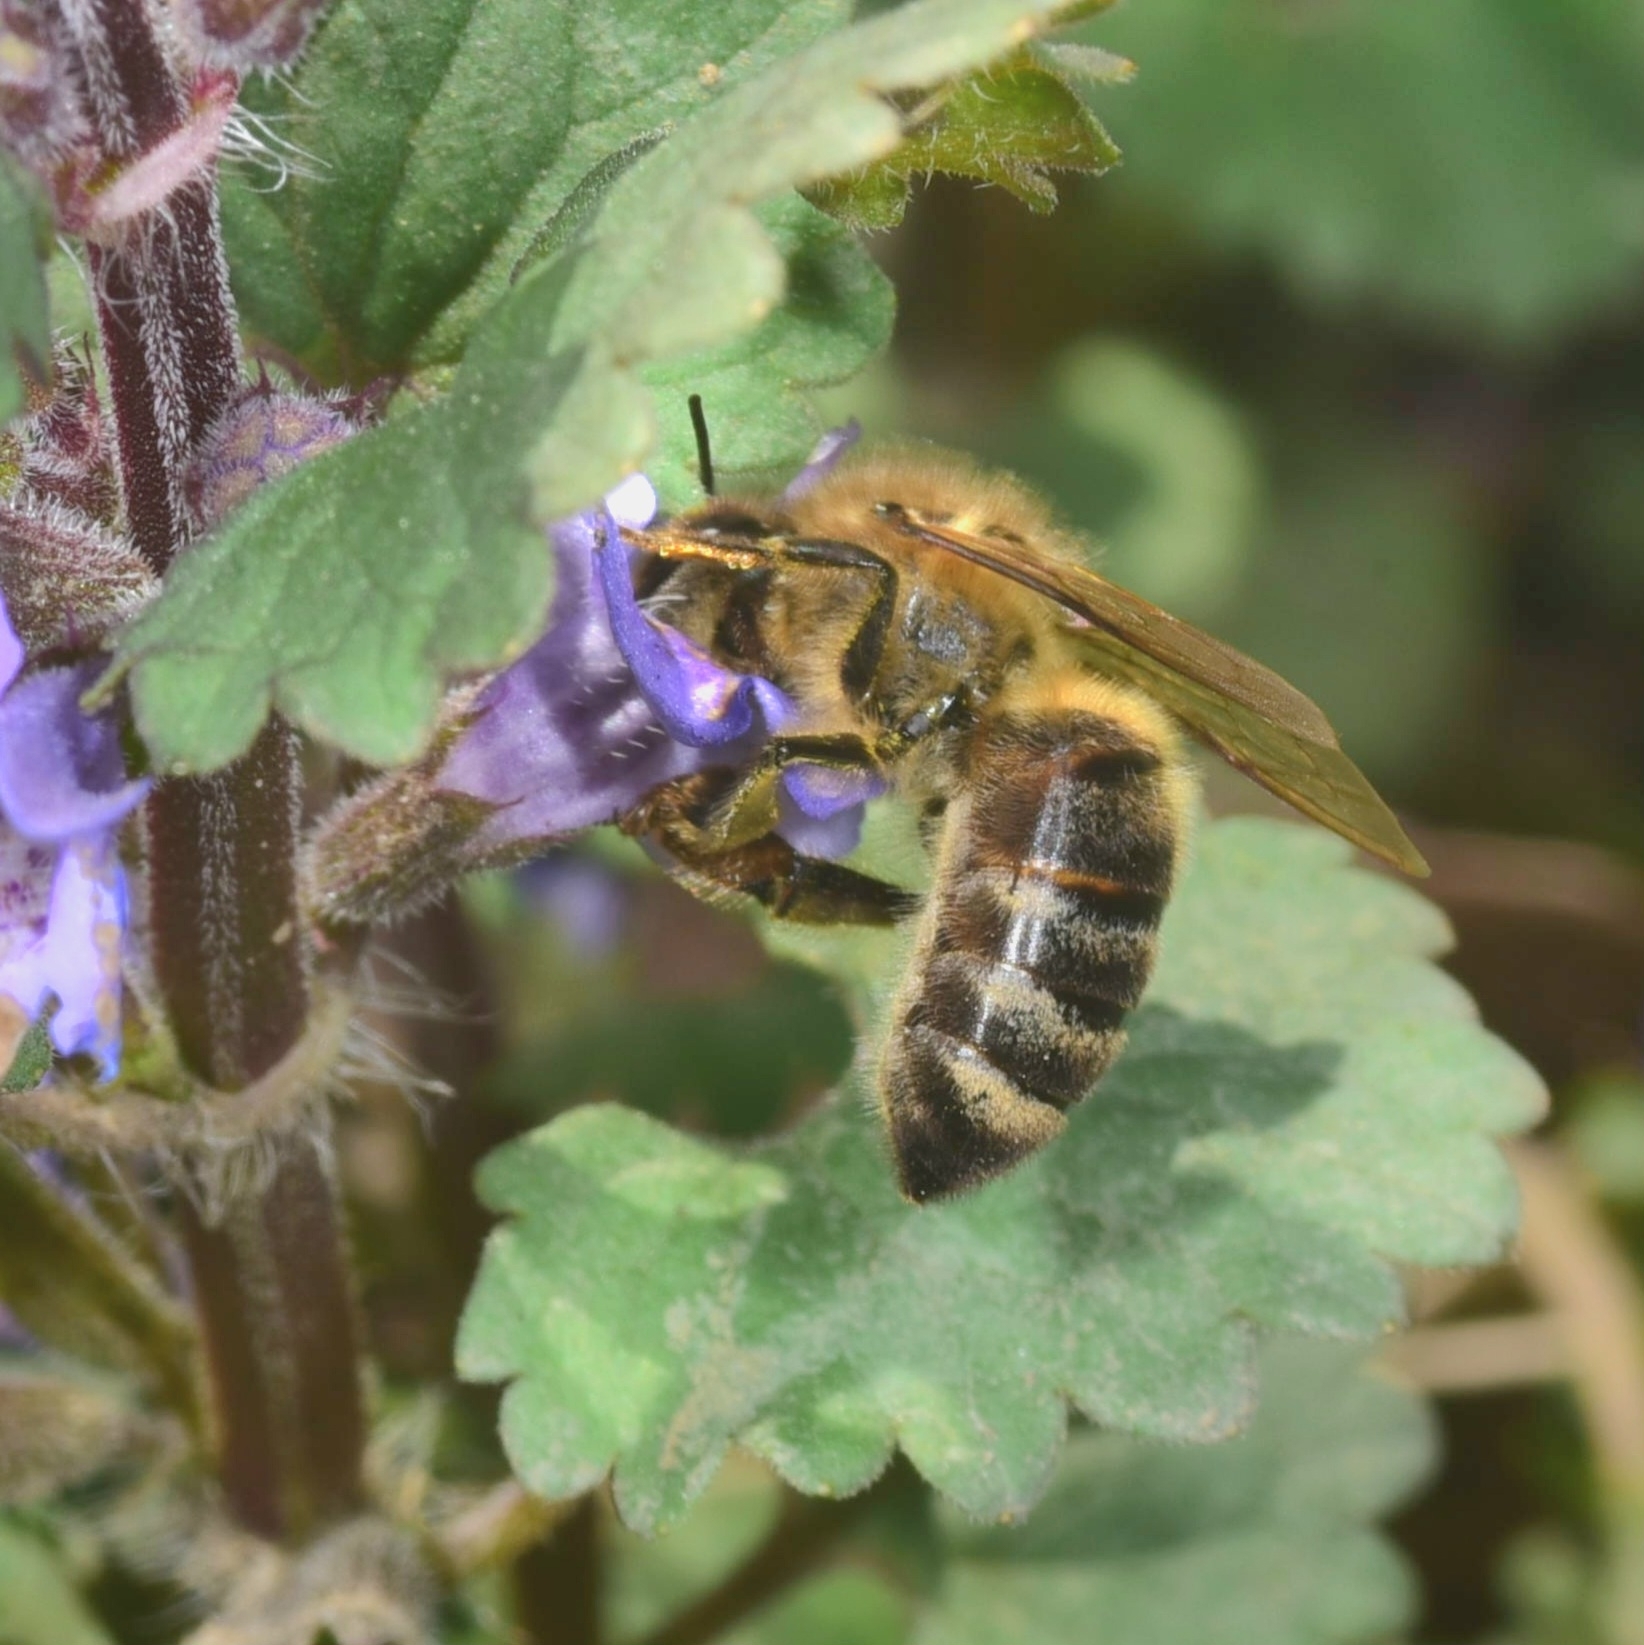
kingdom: Animalia
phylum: Arthropoda
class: Insecta
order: Hymenoptera
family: Apidae
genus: Apis
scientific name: Apis mellifera
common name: Honey bee
